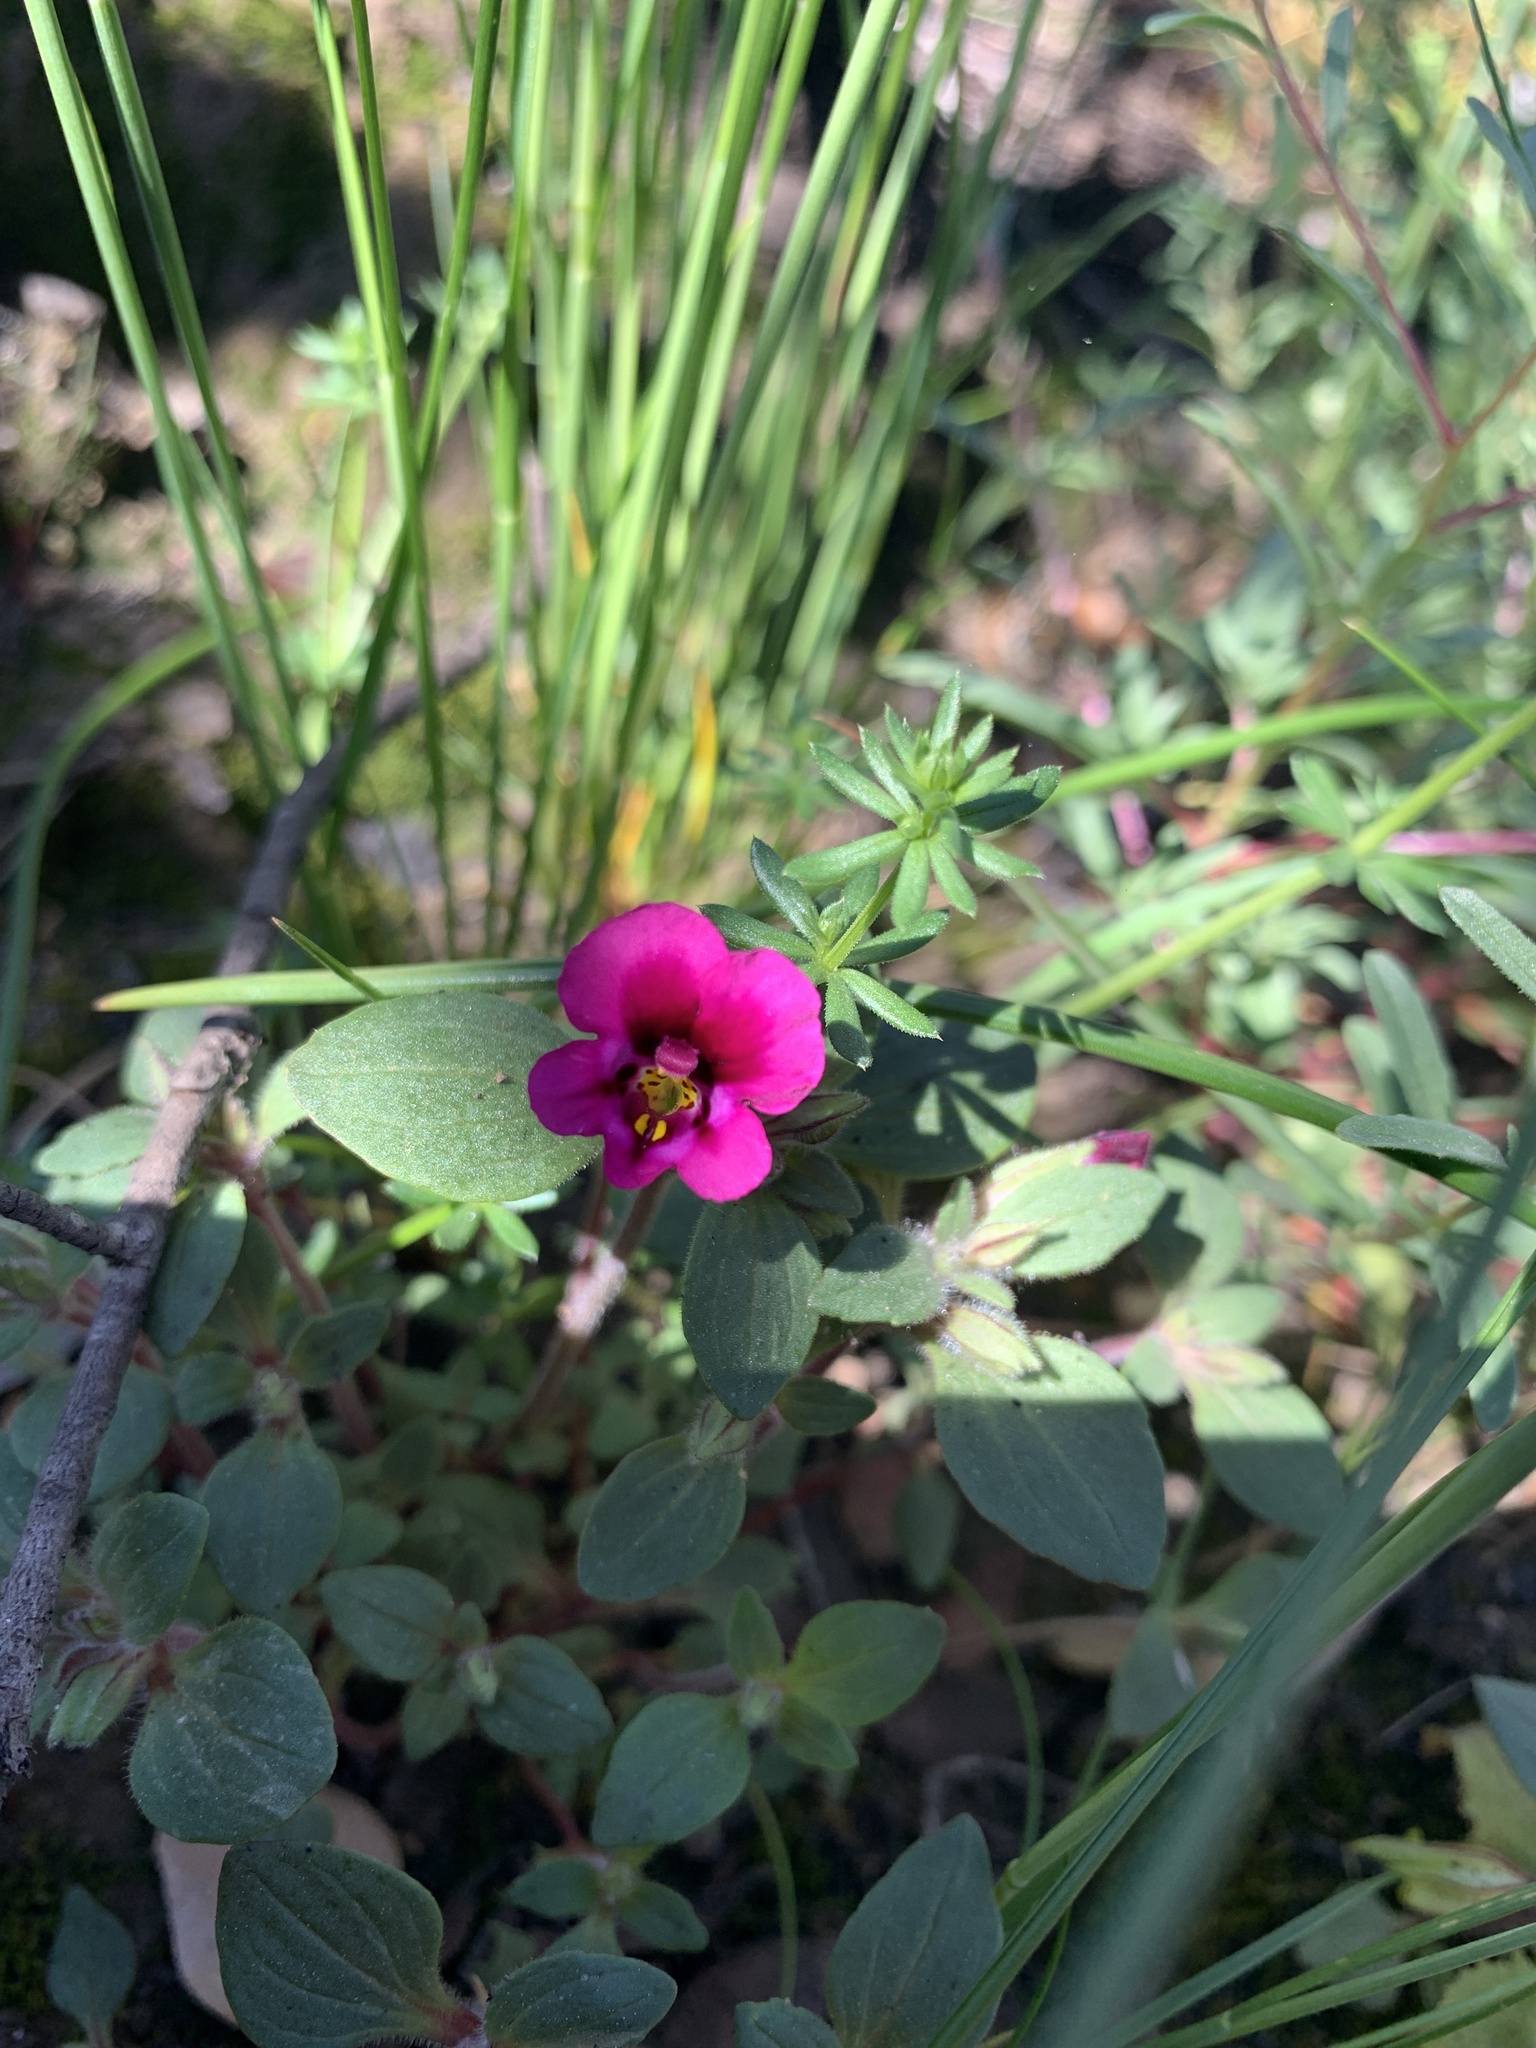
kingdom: Plantae
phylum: Tracheophyta
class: Magnoliopsida
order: Lamiales
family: Phrymaceae
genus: Diplacus
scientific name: Diplacus kelloggii
